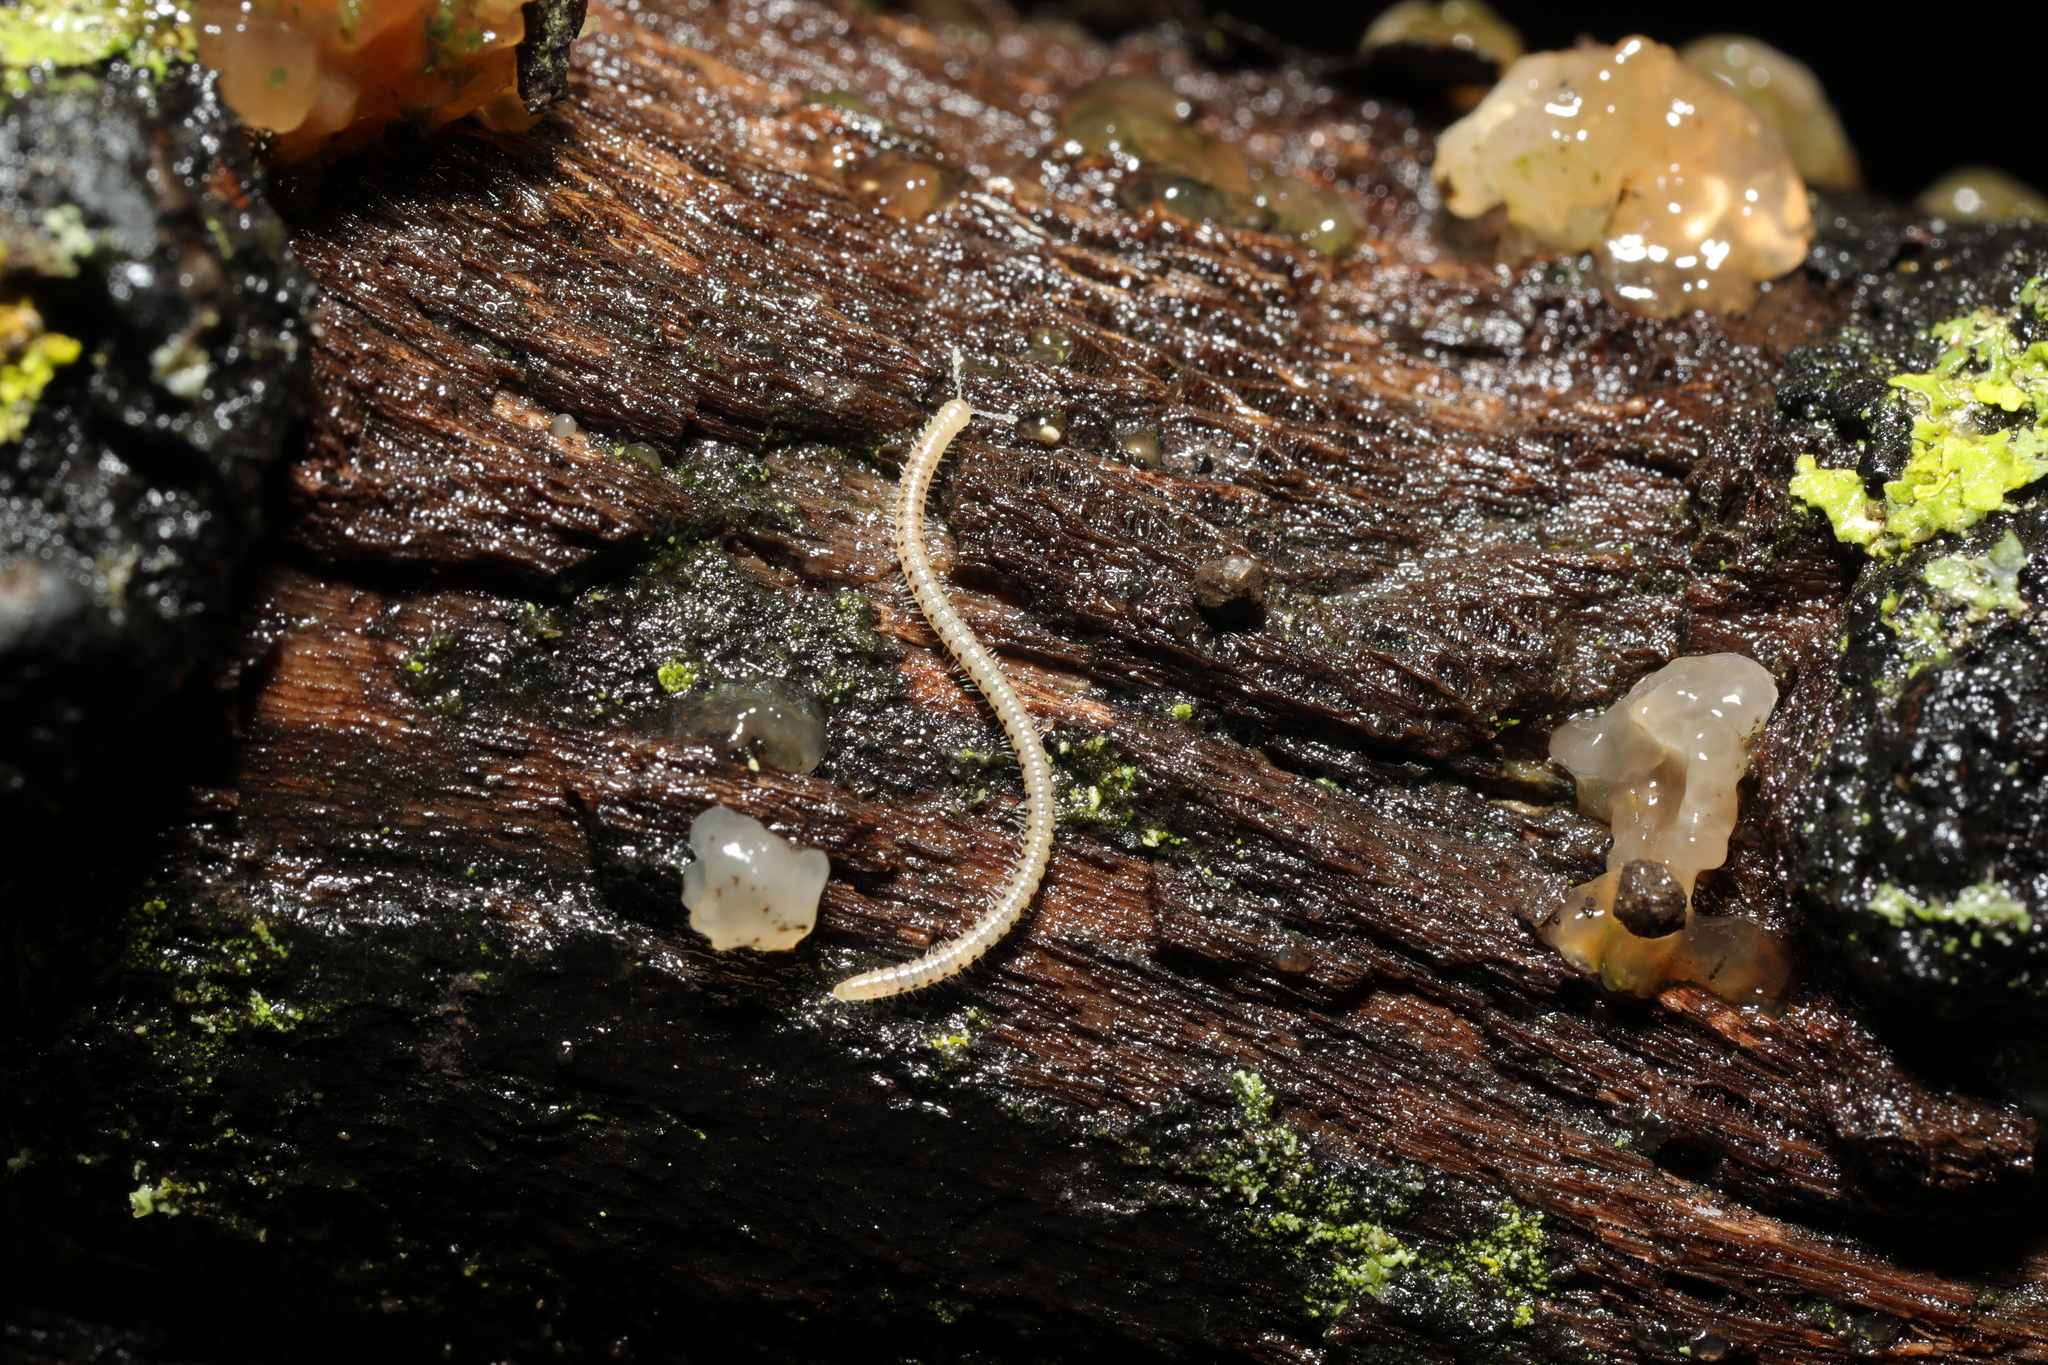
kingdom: Animalia
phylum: Arthropoda
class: Diplopoda
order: Julida
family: Blaniulidae
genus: Blaniulus
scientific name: Blaniulus guttulatus
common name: Spotted snake millipede
